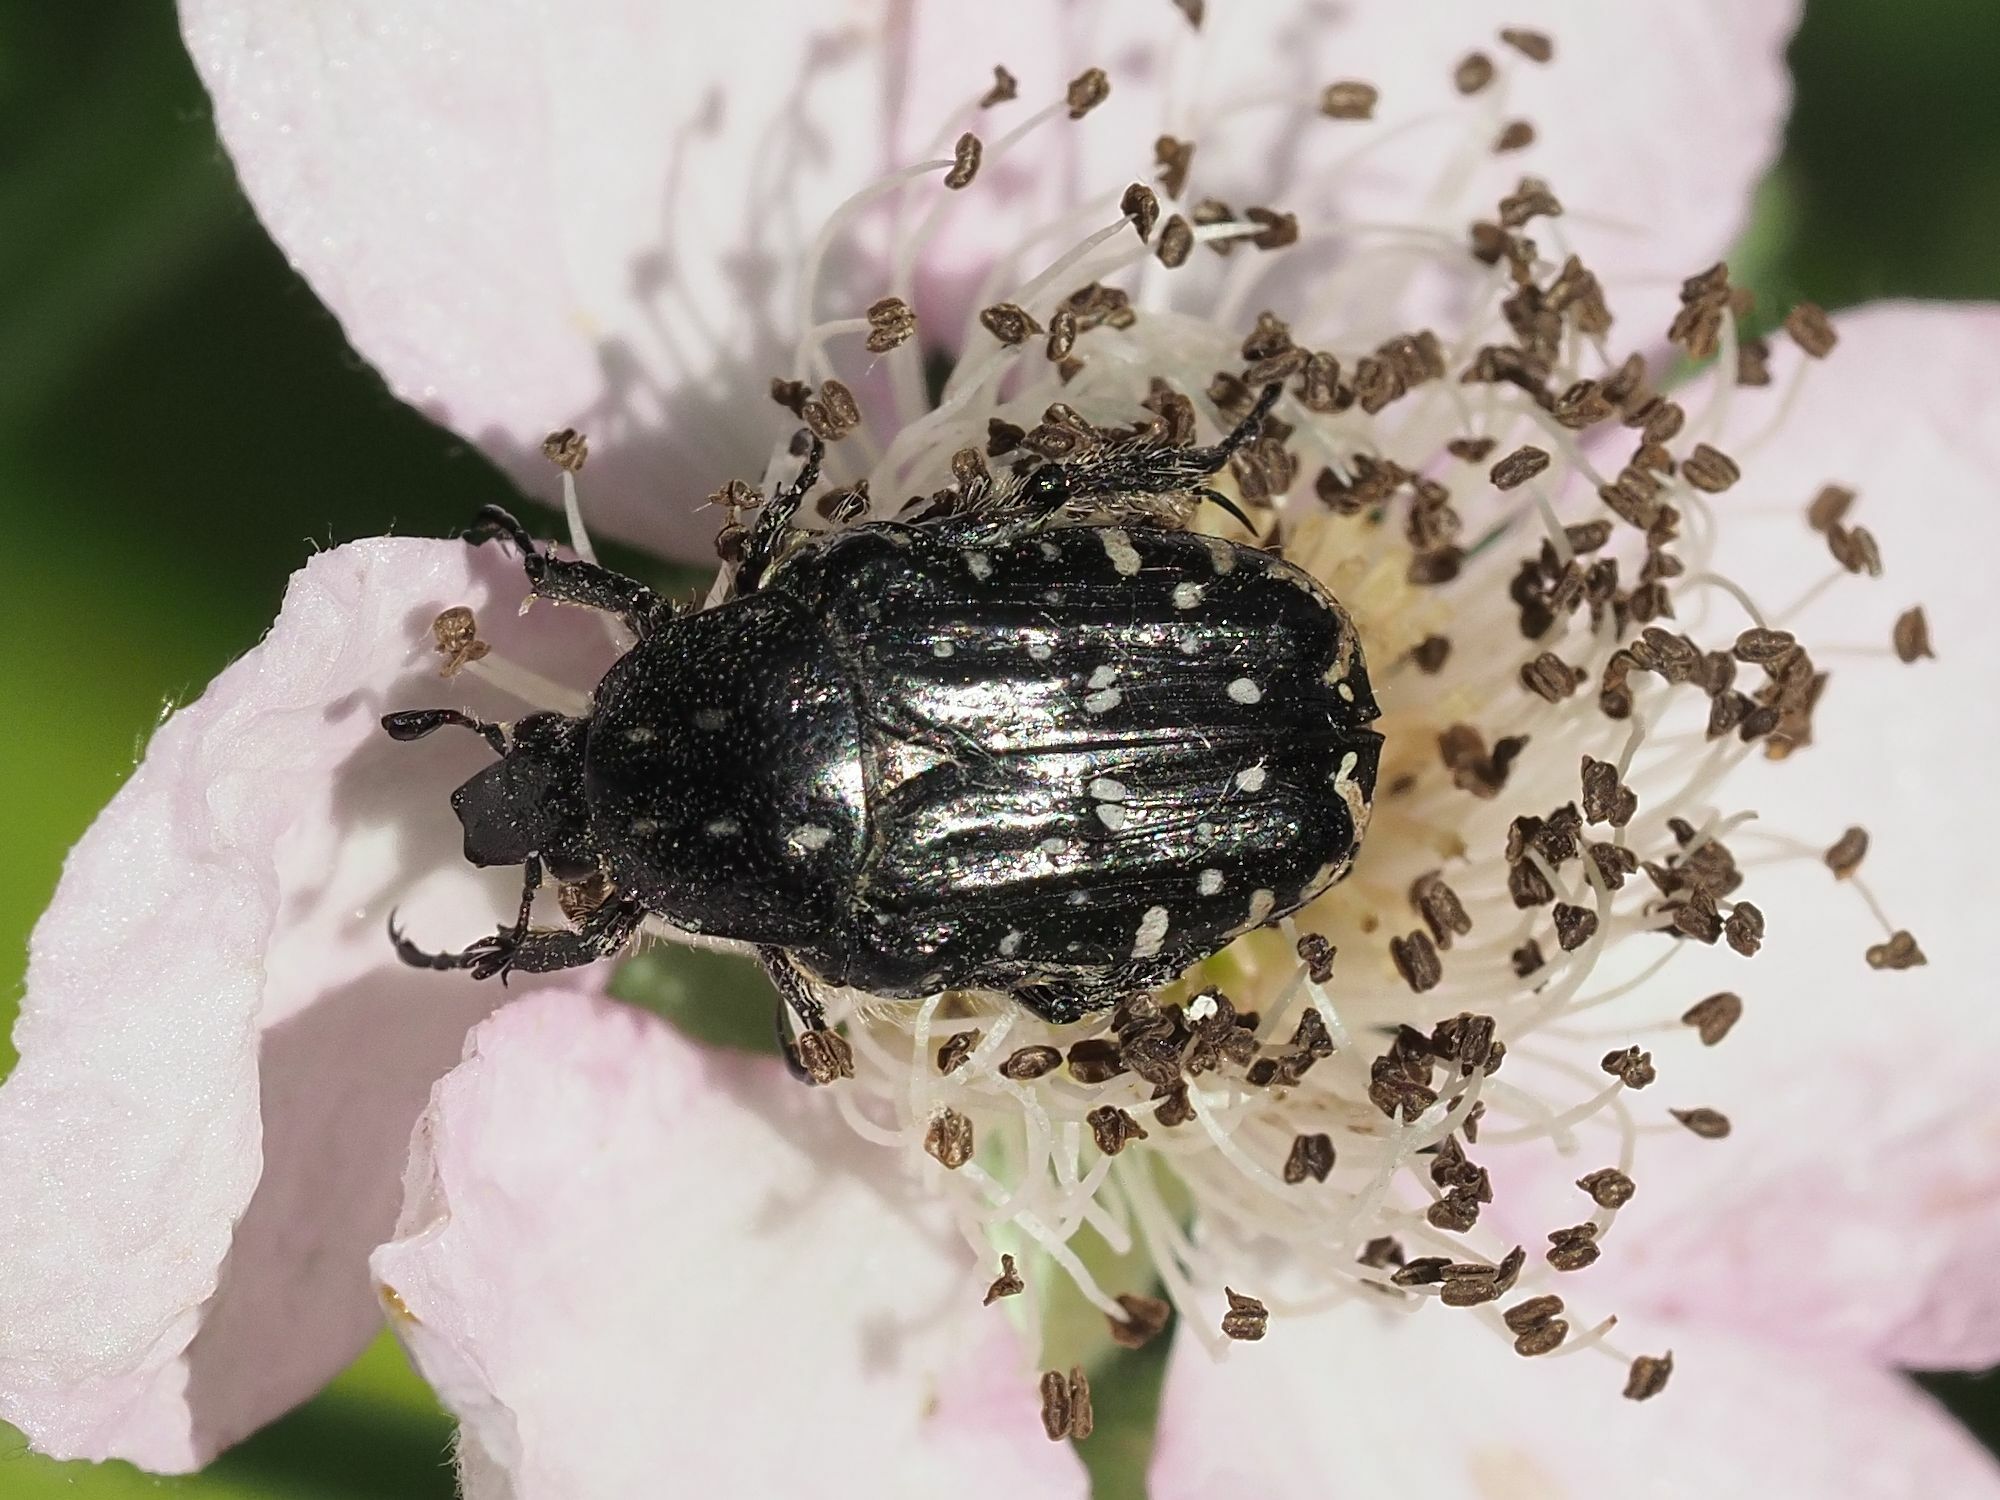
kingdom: Animalia
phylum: Arthropoda
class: Insecta
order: Coleoptera
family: Scarabaeidae
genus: Oxythyrea
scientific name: Oxythyrea funesta
